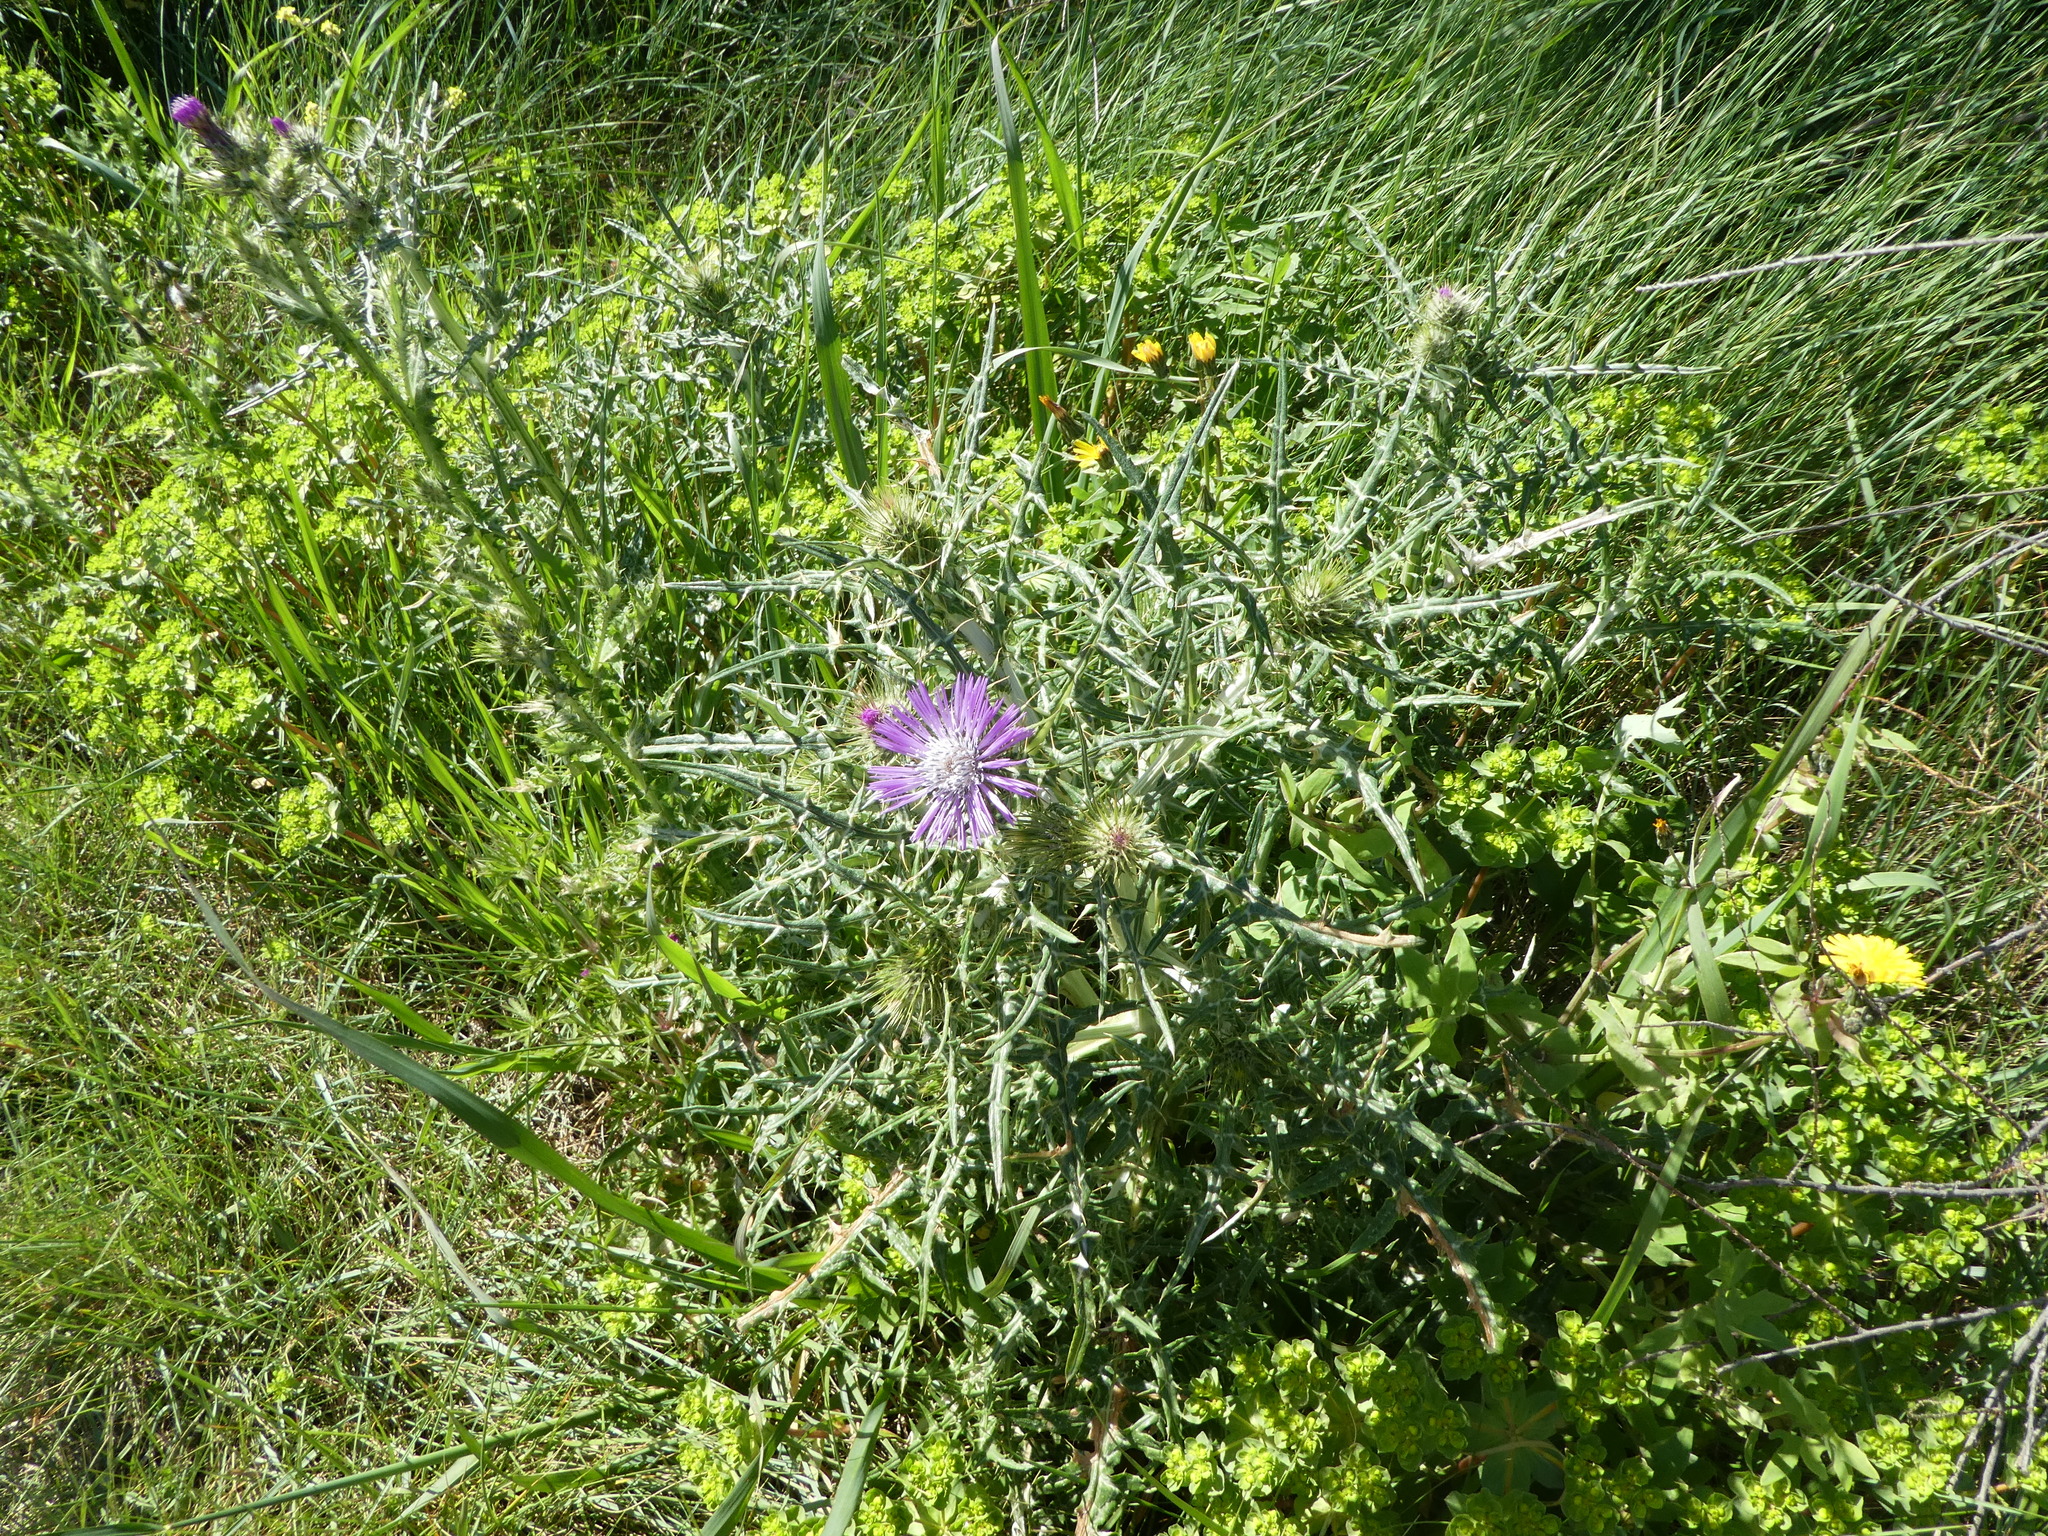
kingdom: Plantae
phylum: Tracheophyta
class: Magnoliopsida
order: Asterales
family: Asteraceae
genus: Galactites
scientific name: Galactites tomentosa
